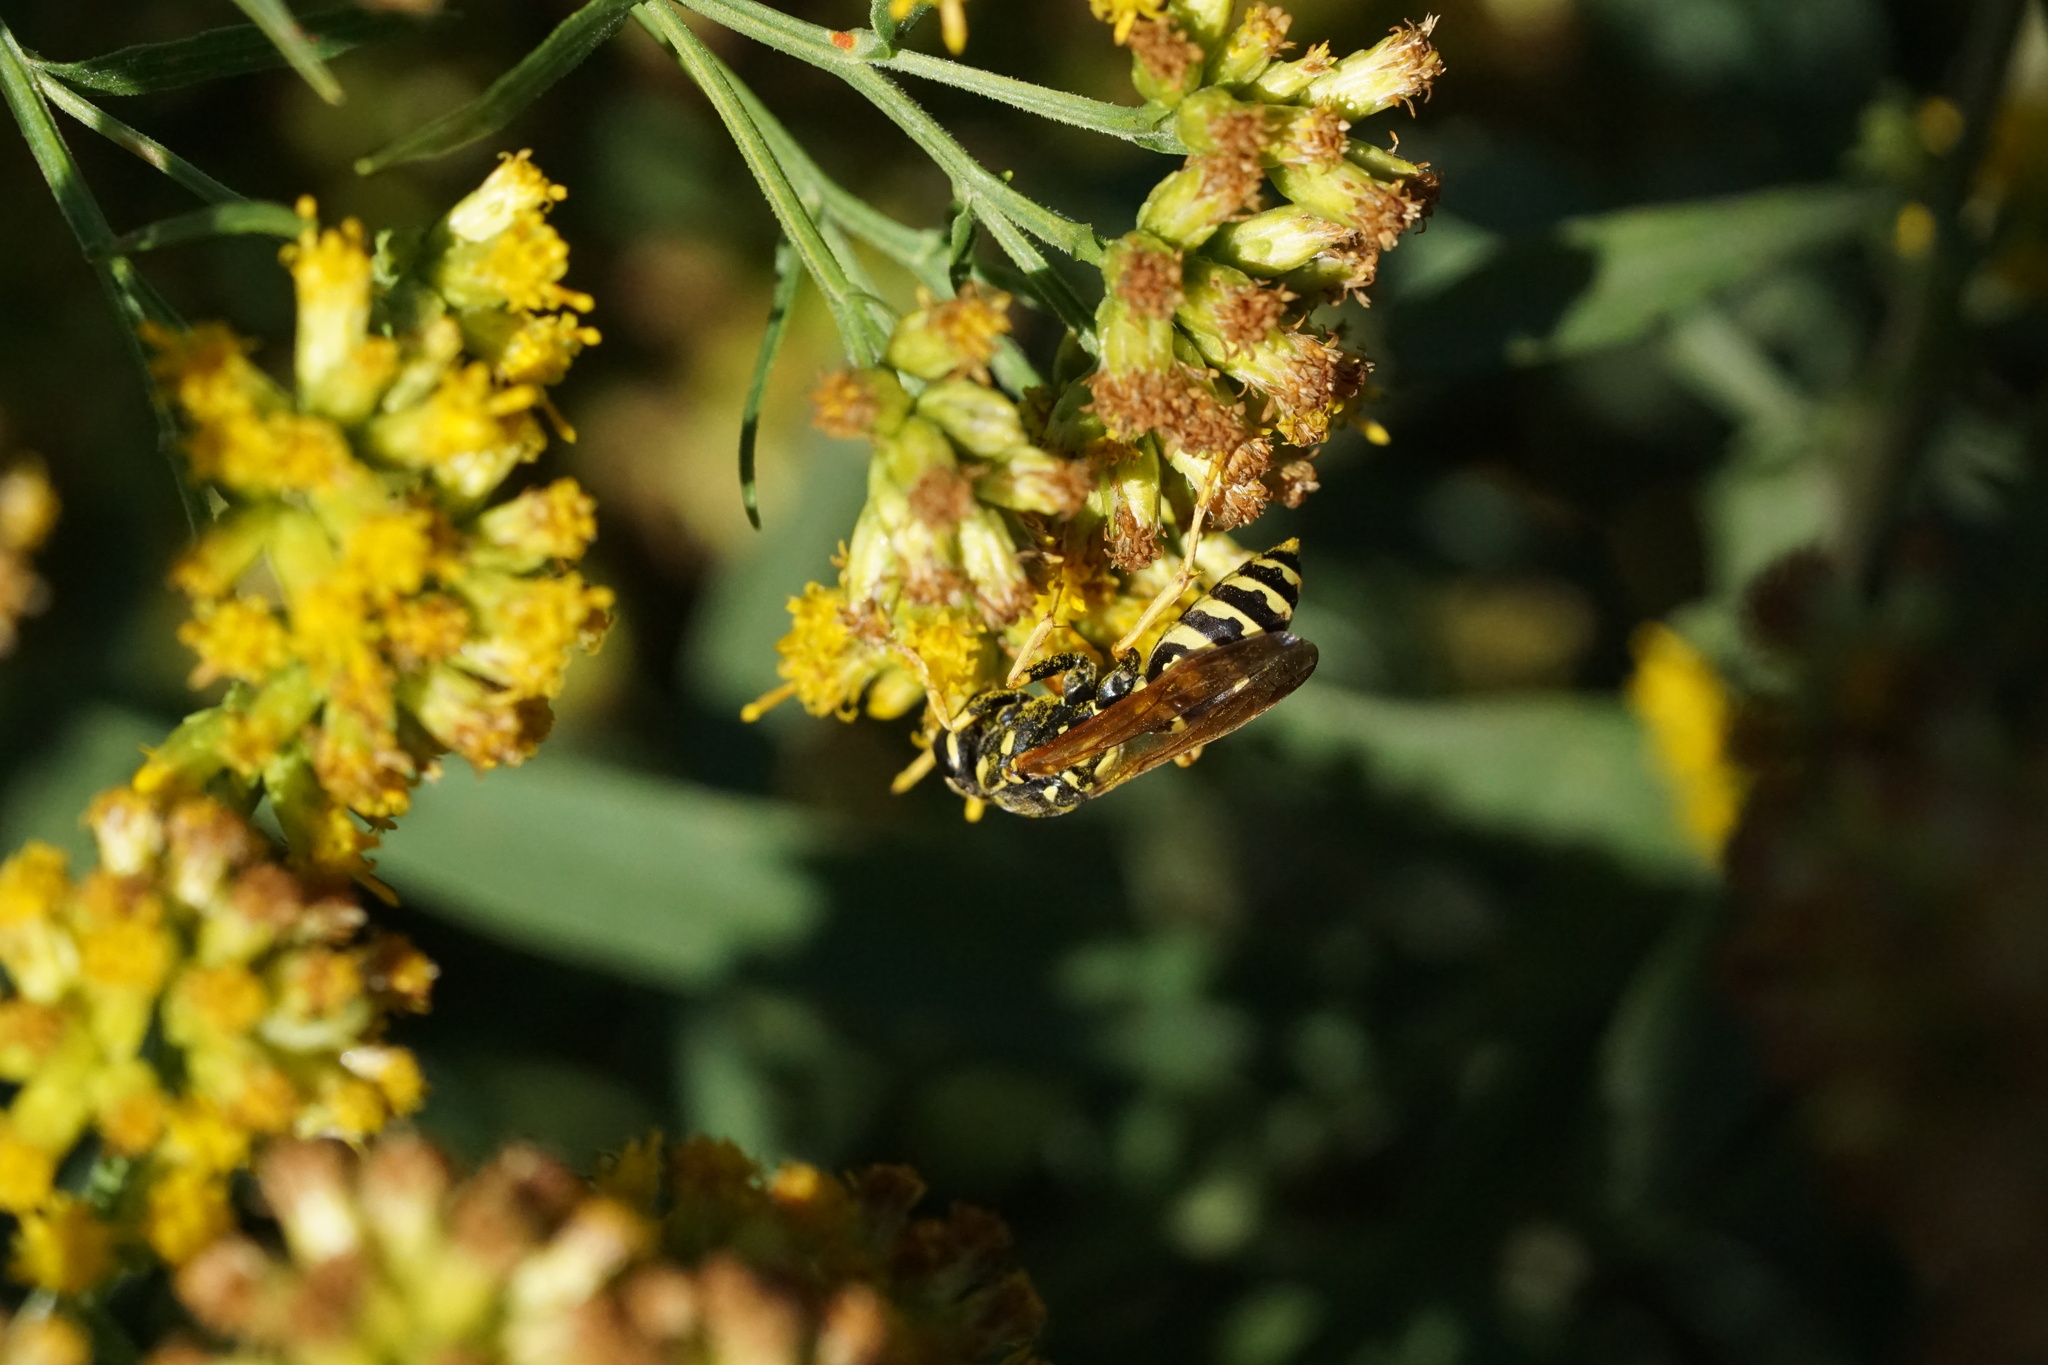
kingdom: Animalia
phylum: Arthropoda
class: Insecta
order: Hymenoptera
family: Eumenidae
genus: Polistes
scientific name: Polistes dominula
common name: Paper wasp
